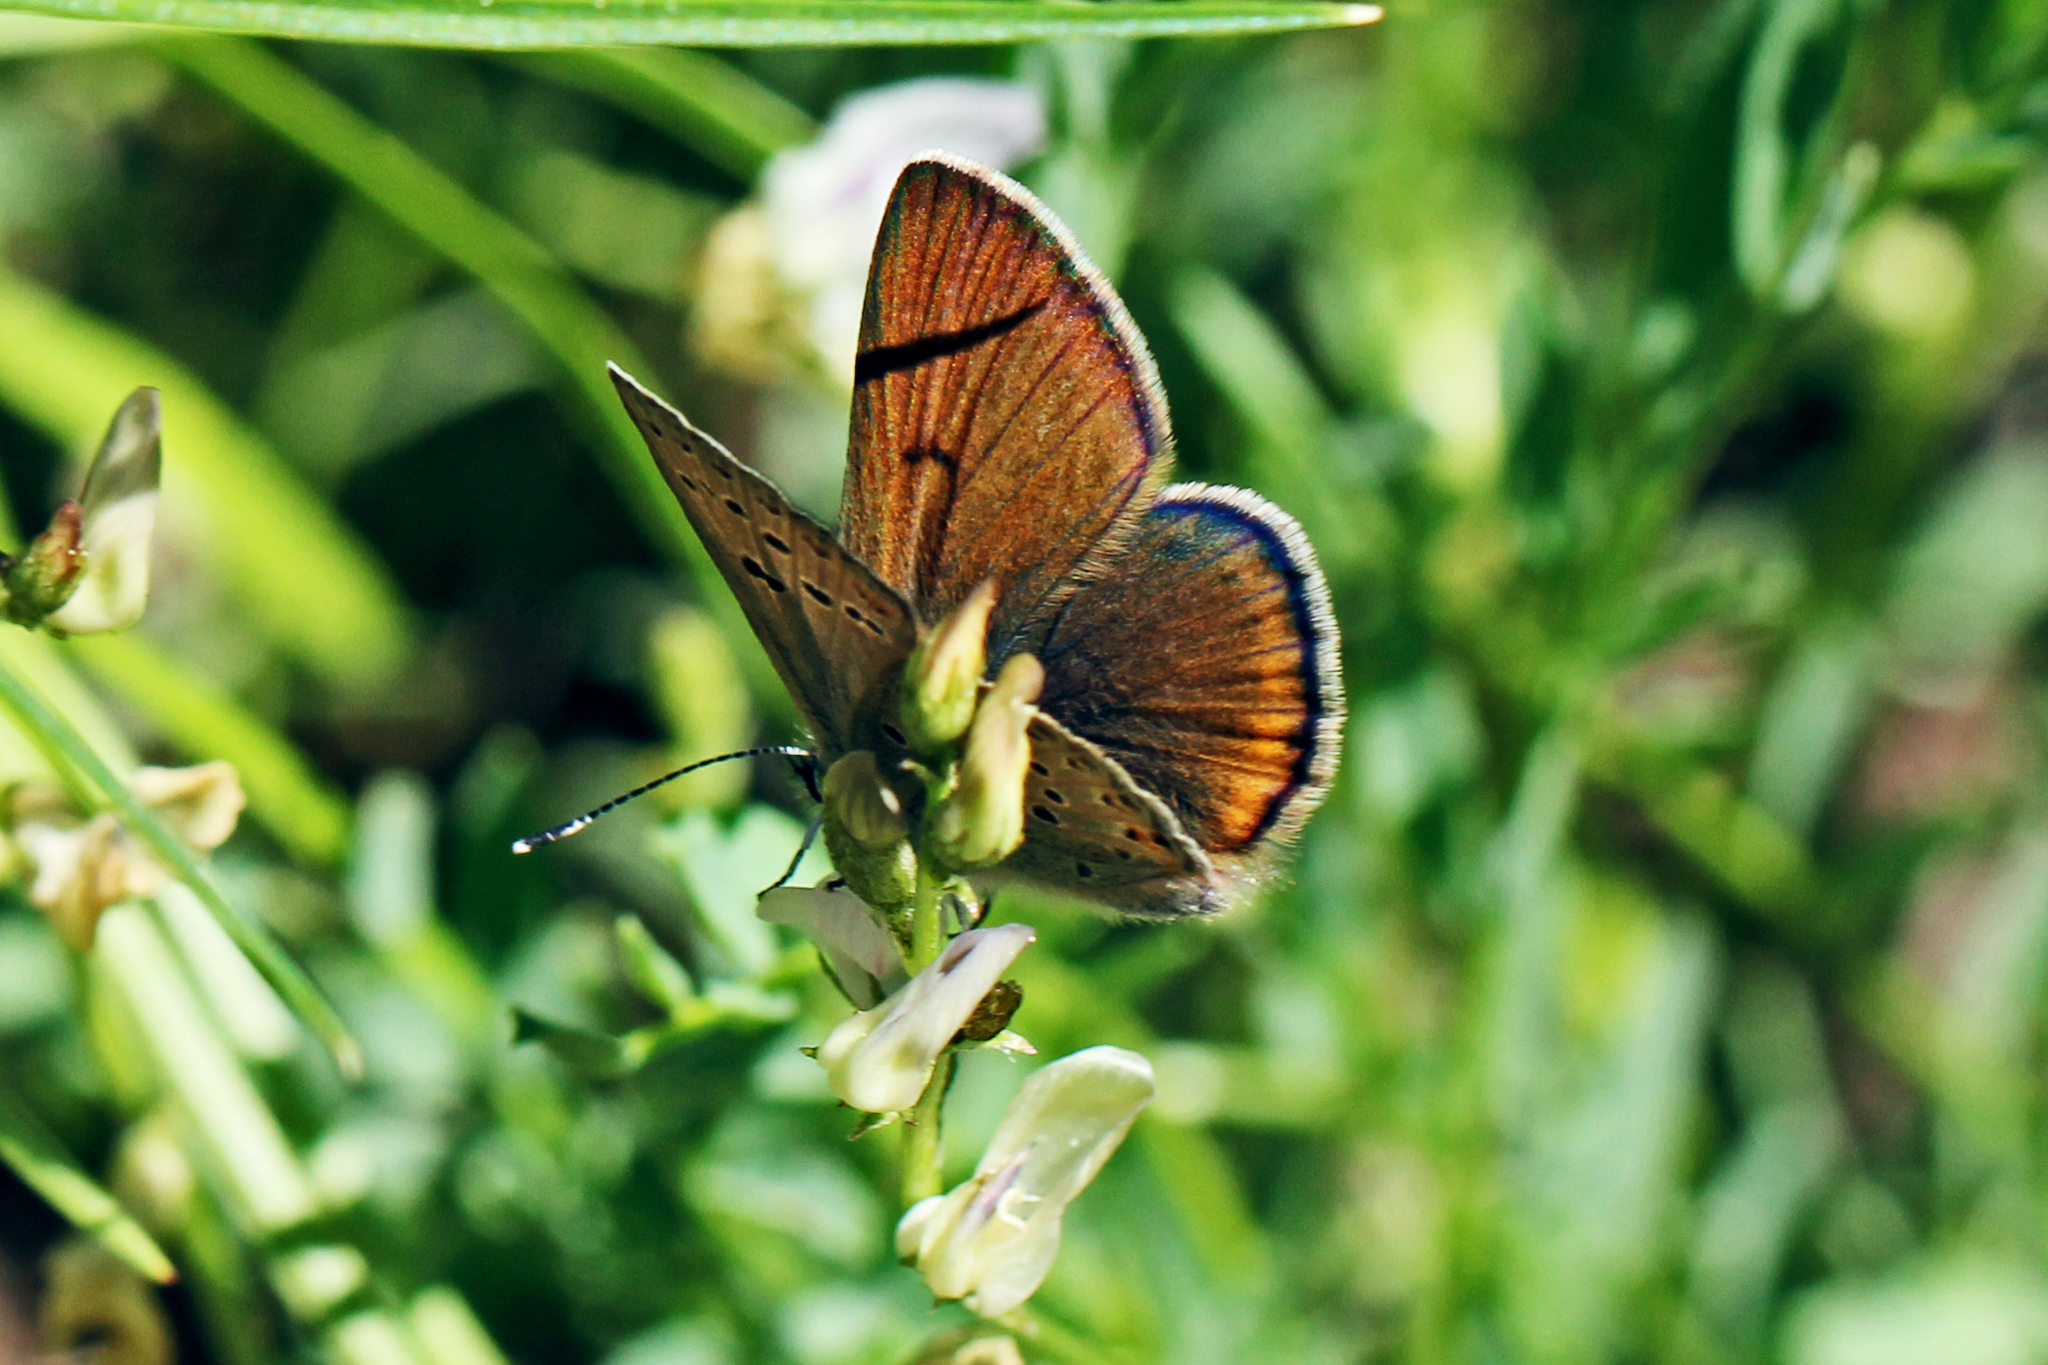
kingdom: Animalia
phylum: Arthropoda
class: Insecta
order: Lepidoptera
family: Lycaenidae
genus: Icaricia
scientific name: Icaricia saepiolus
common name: Greenish blue
